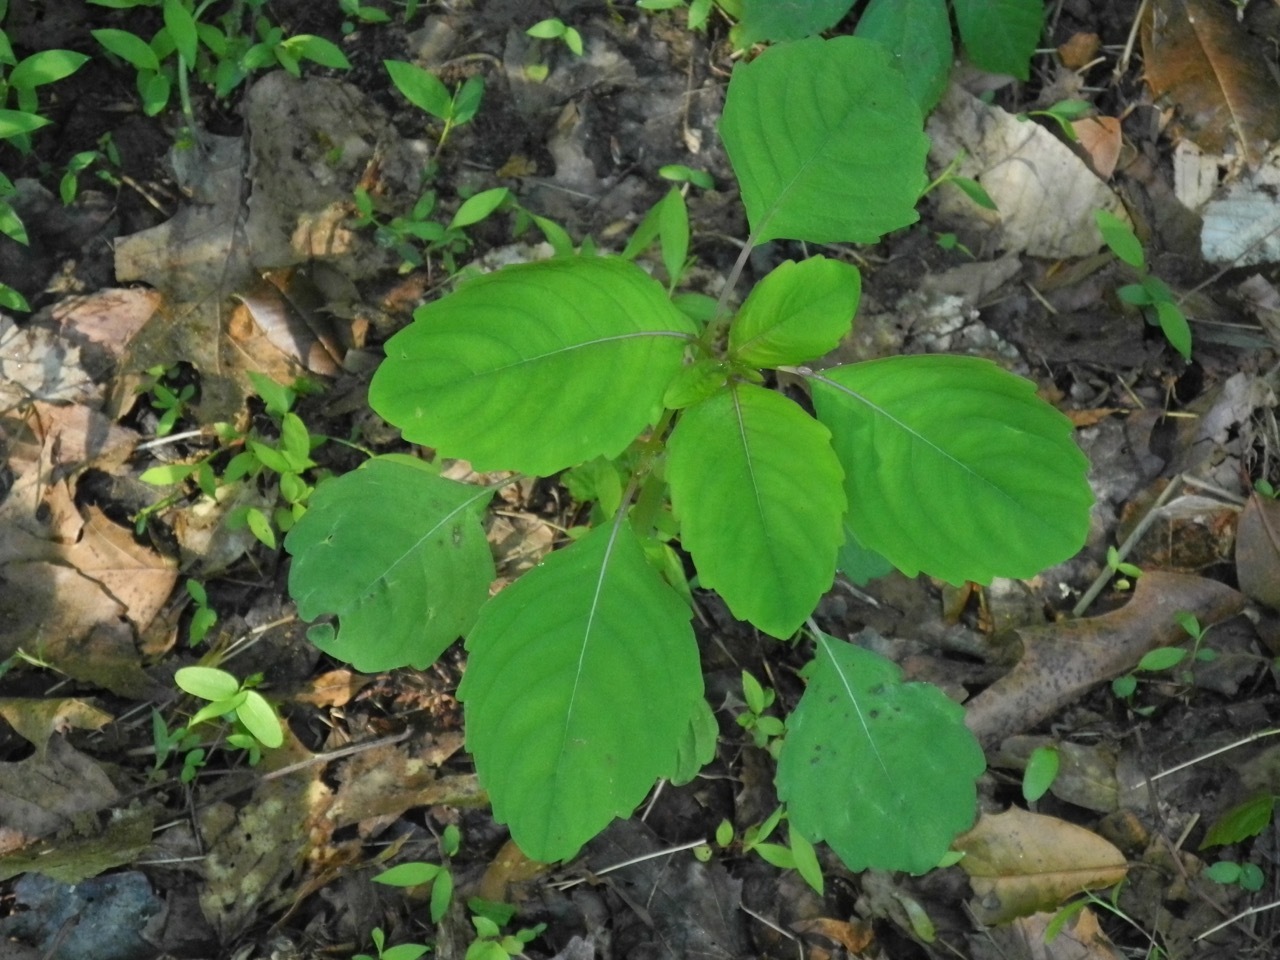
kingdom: Plantae
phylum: Tracheophyta
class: Magnoliopsida
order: Ericales
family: Balsaminaceae
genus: Impatiens
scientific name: Impatiens capensis
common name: Orange balsam
